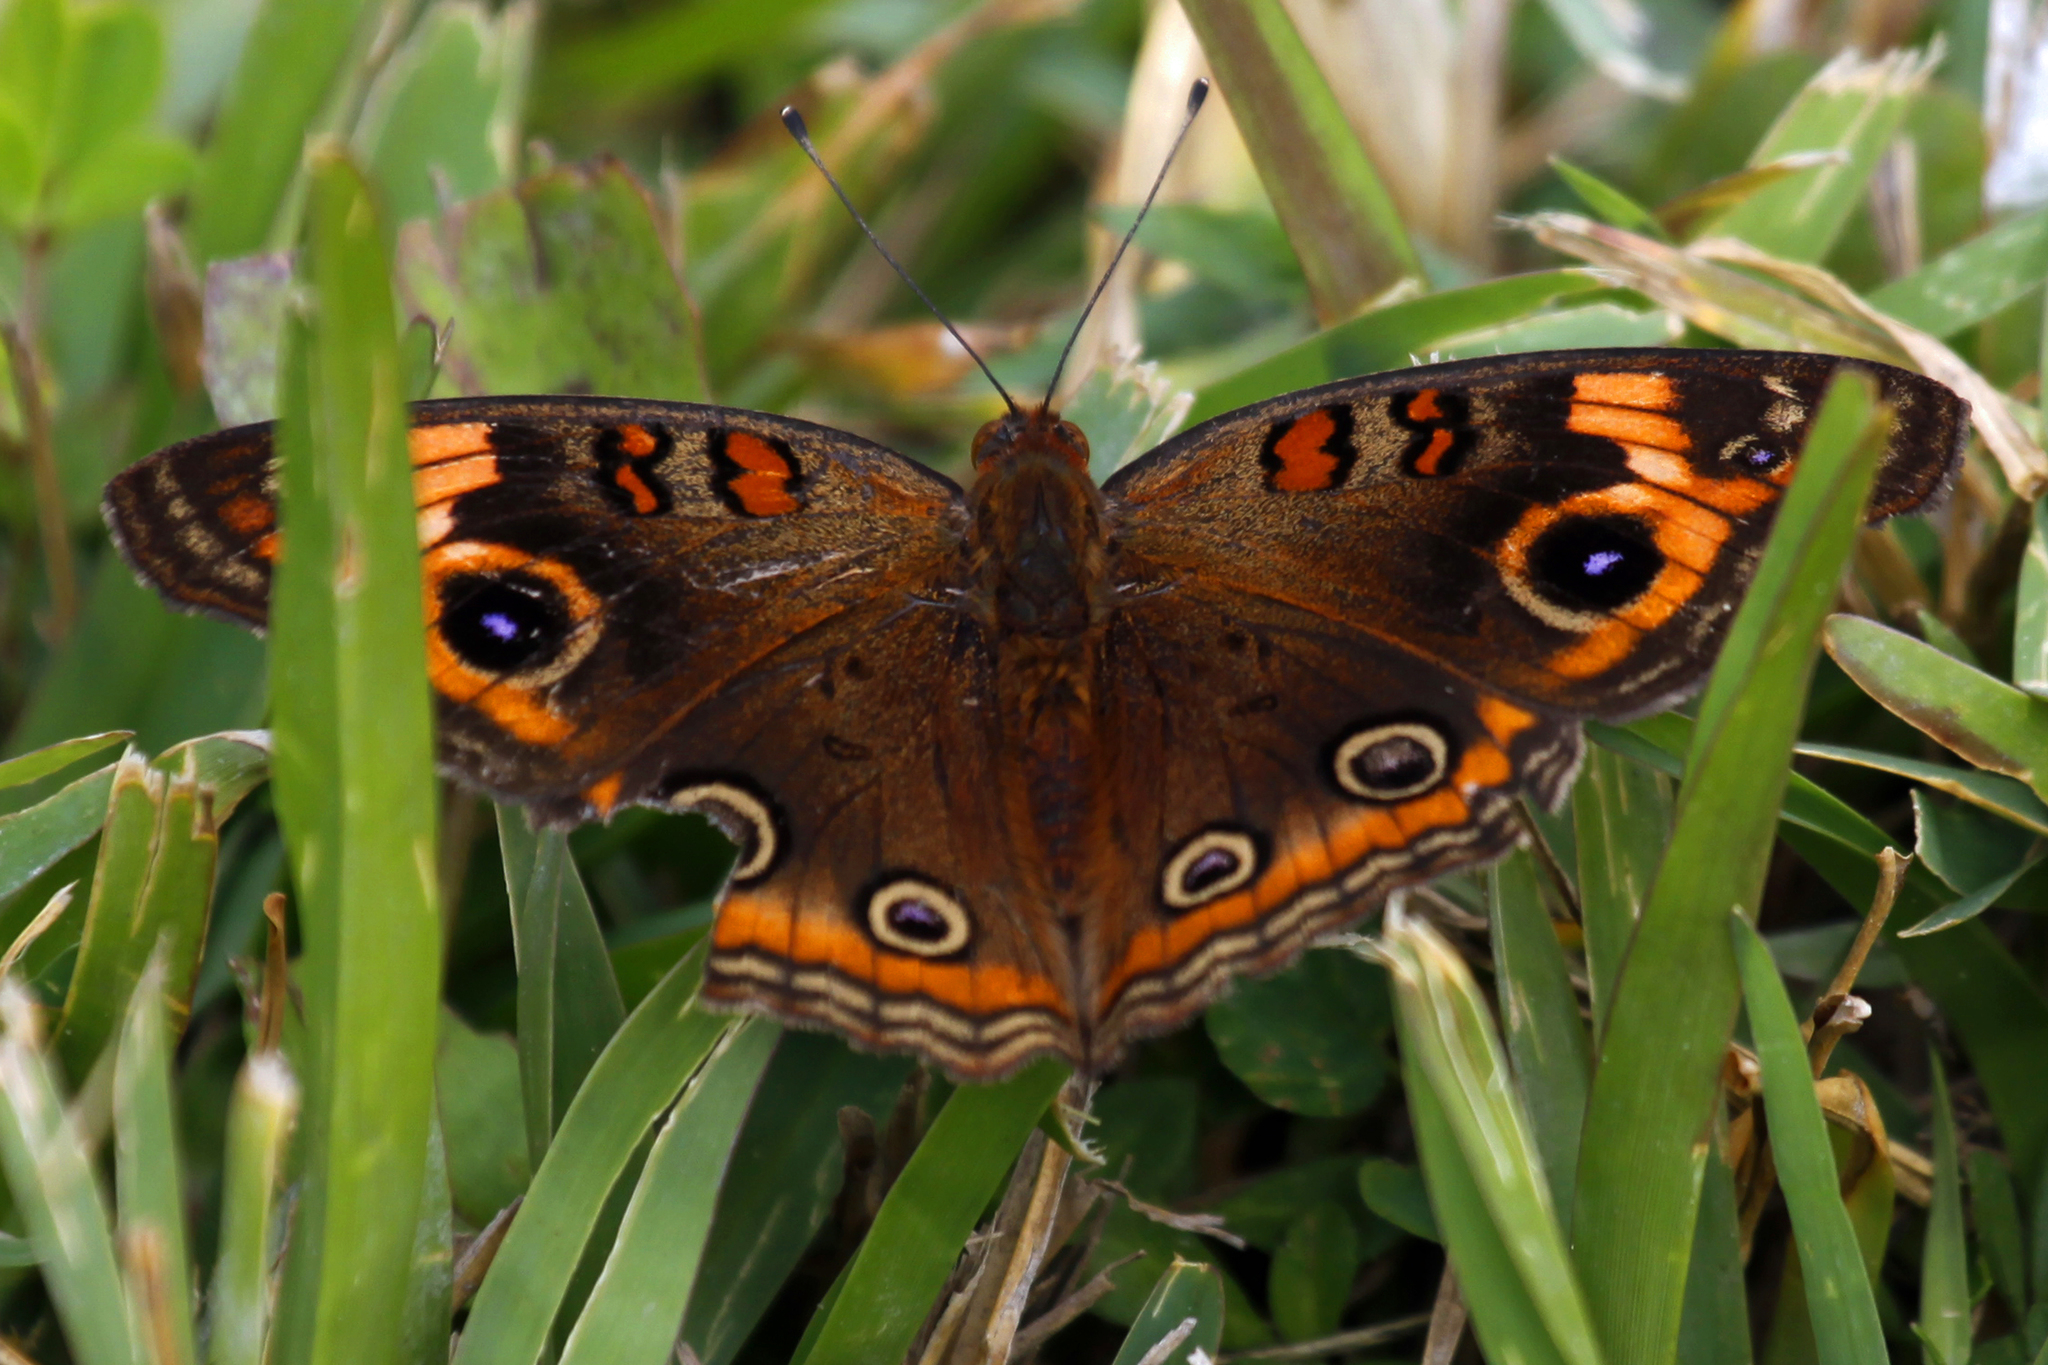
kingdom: Animalia
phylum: Arthropoda
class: Insecta
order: Lepidoptera
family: Nymphalidae
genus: Junonia
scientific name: Junonia neildi
